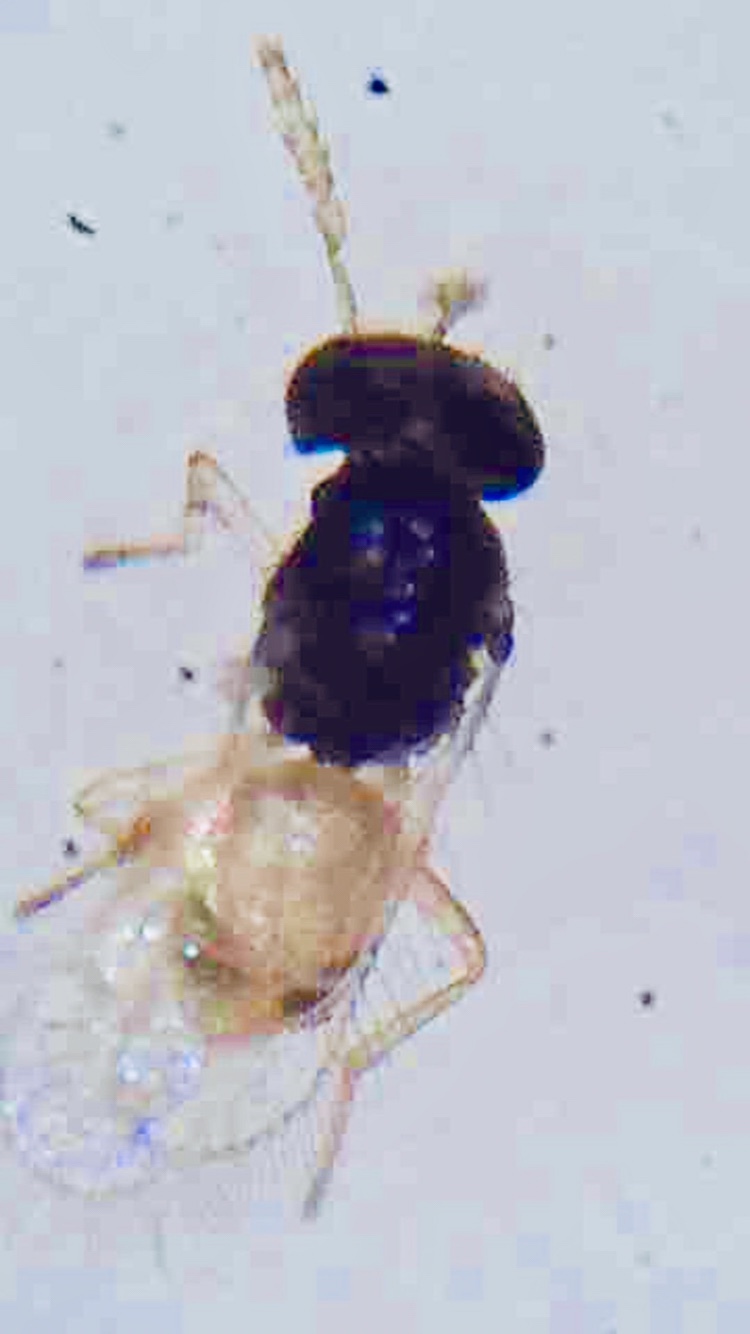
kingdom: Animalia
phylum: Arthropoda
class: Insecta
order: Hymenoptera
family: Eulophidae
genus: Thripoctenus
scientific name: Thripoctenus javae
